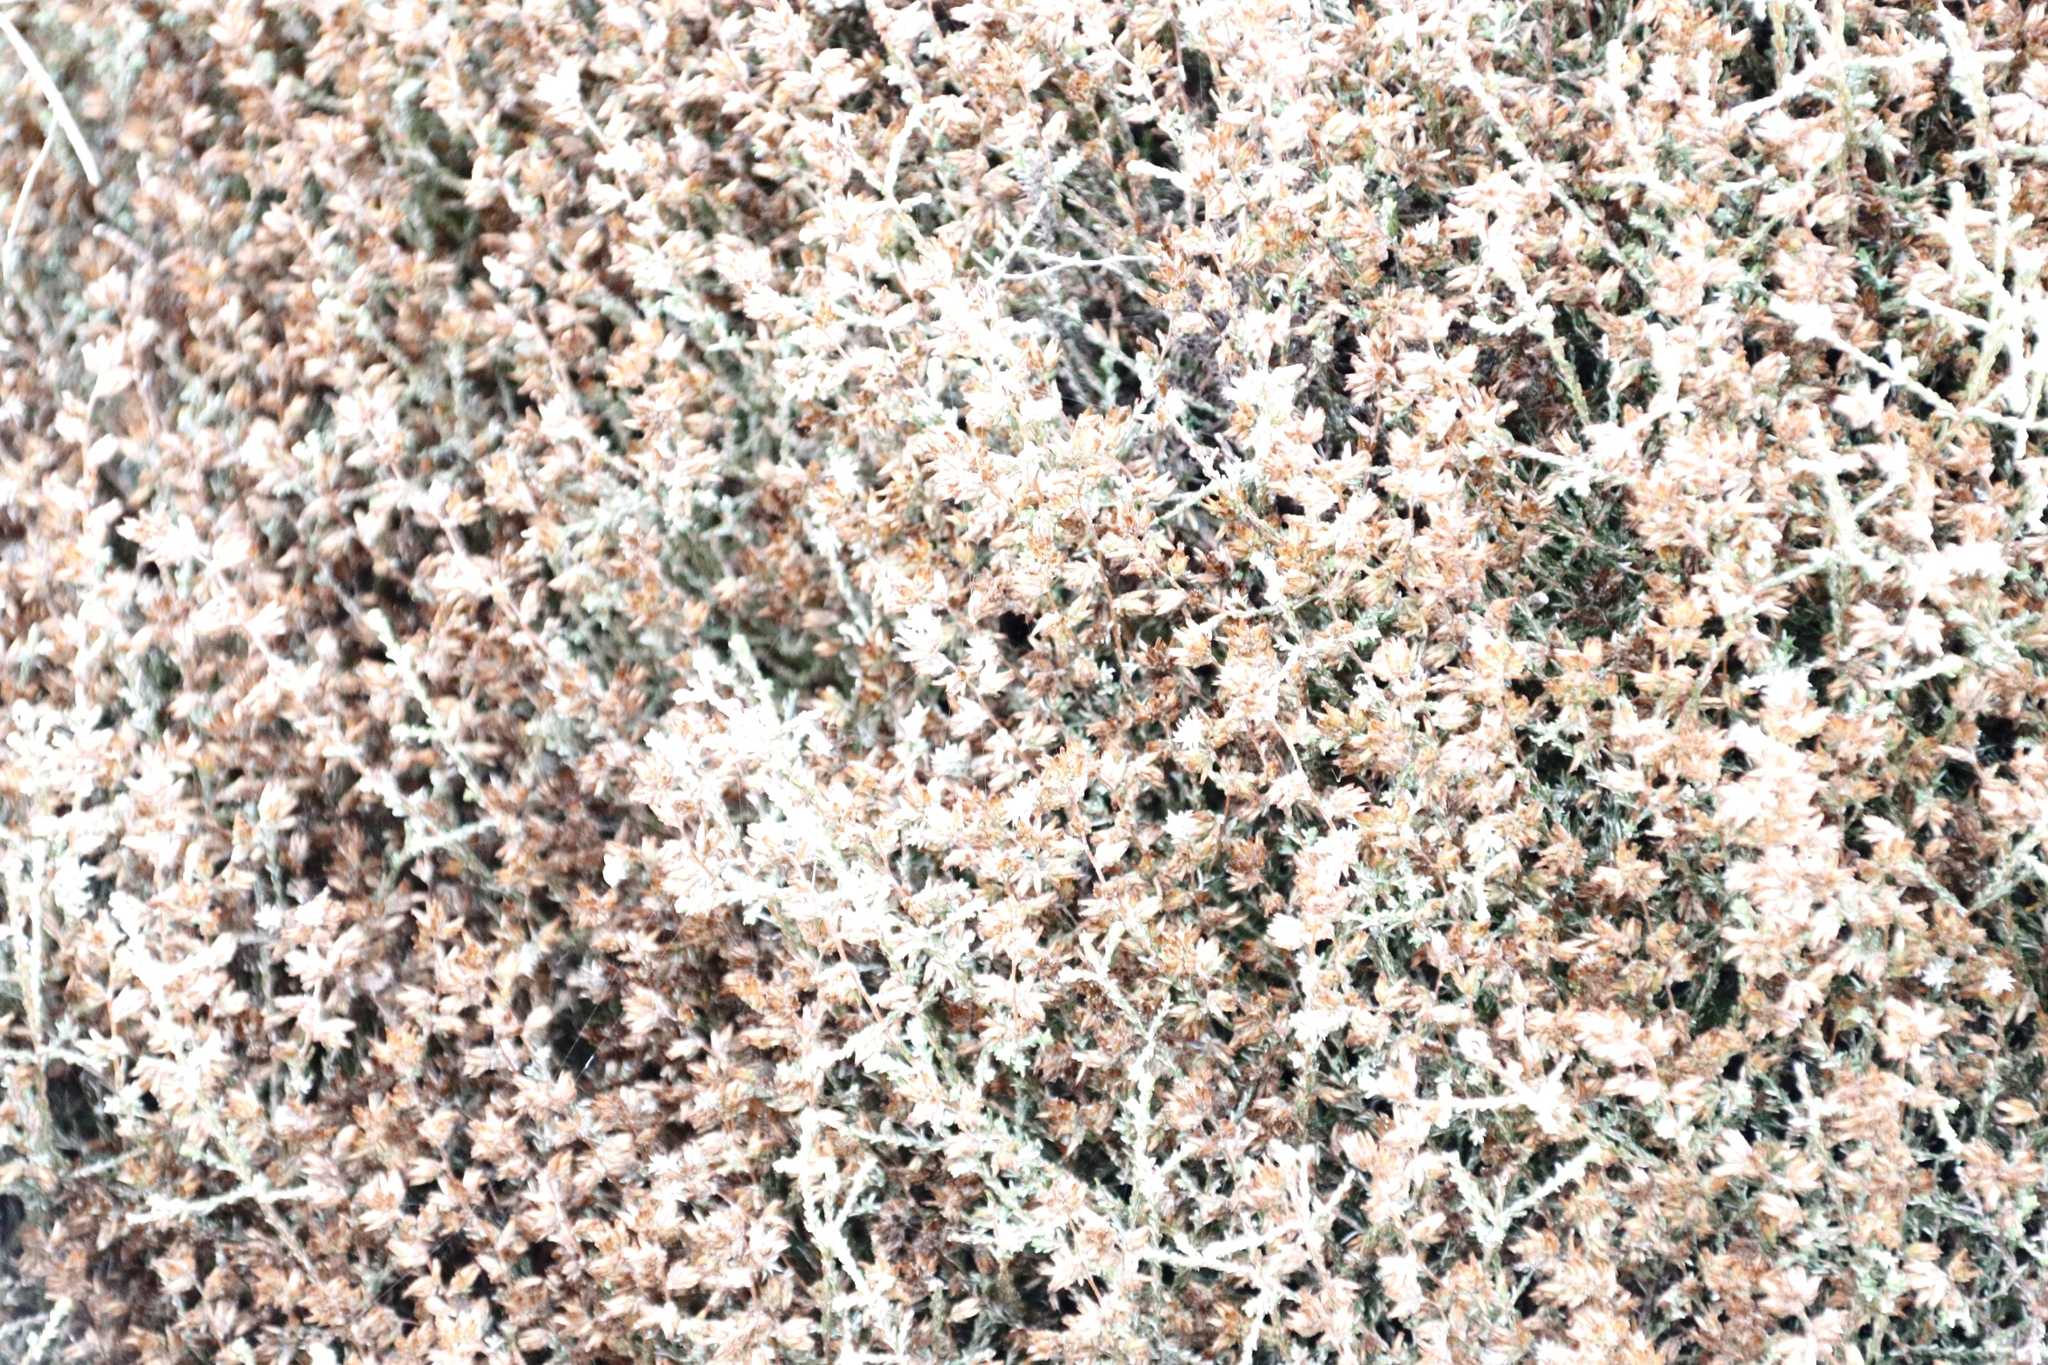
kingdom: Plantae
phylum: Tracheophyta
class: Magnoliopsida
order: Asterales
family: Asteraceae
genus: Myrovernix
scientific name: Myrovernix scaber
